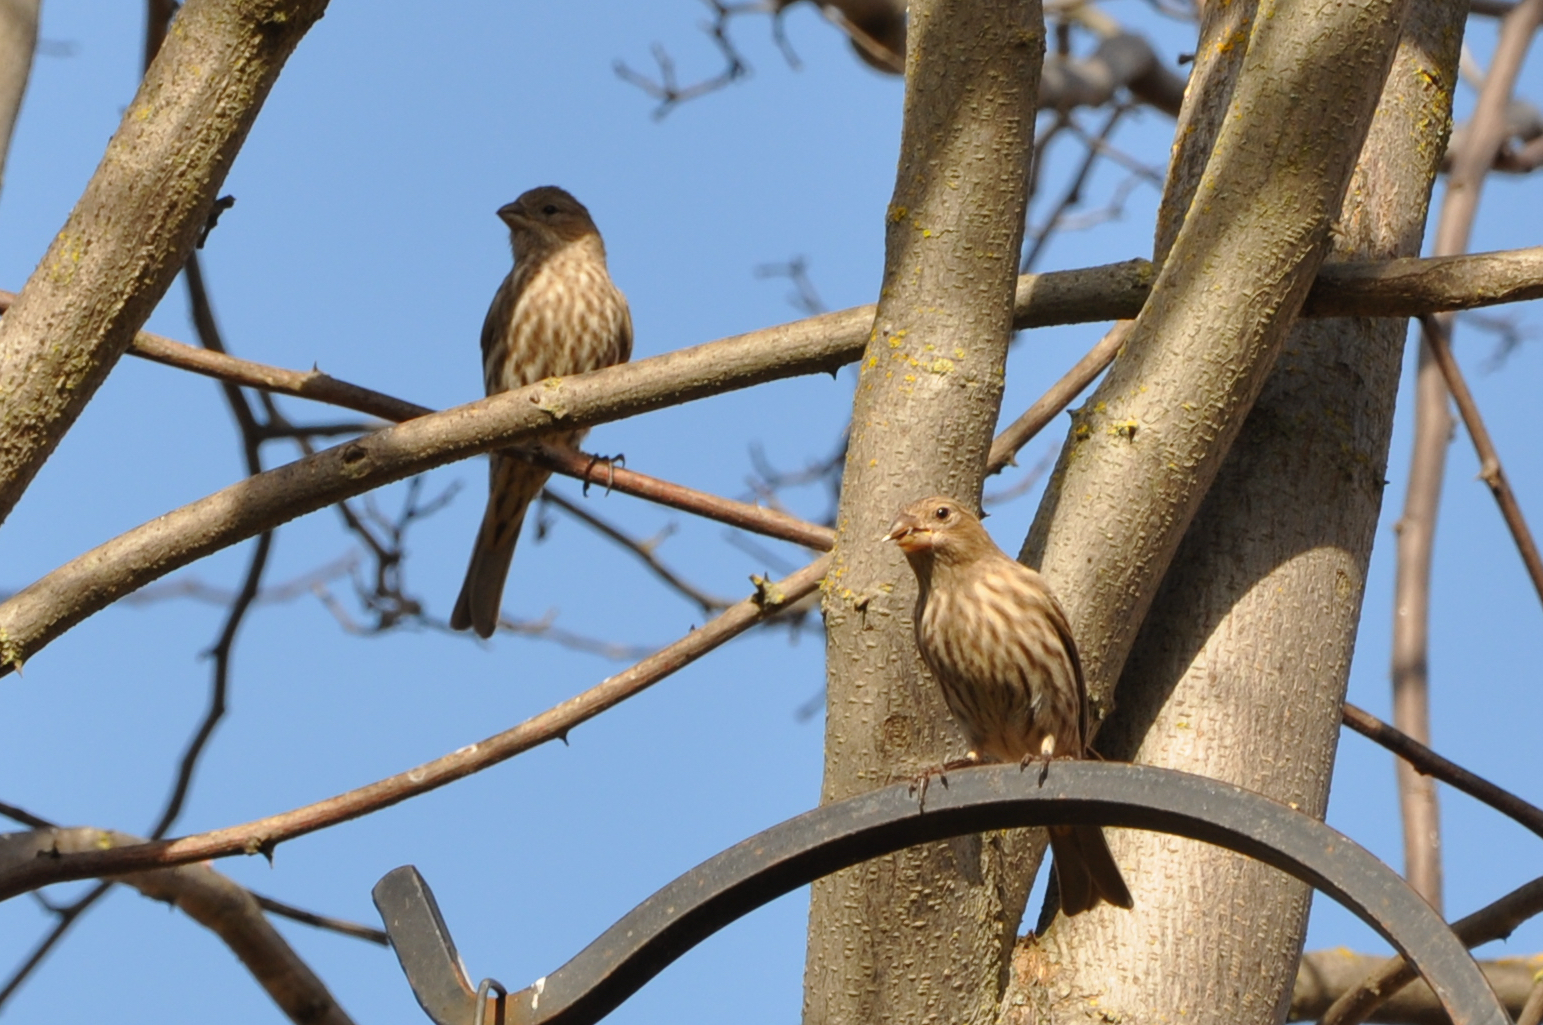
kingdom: Animalia
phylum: Chordata
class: Aves
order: Passeriformes
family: Fringillidae
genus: Haemorhous
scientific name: Haemorhous mexicanus
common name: House finch
